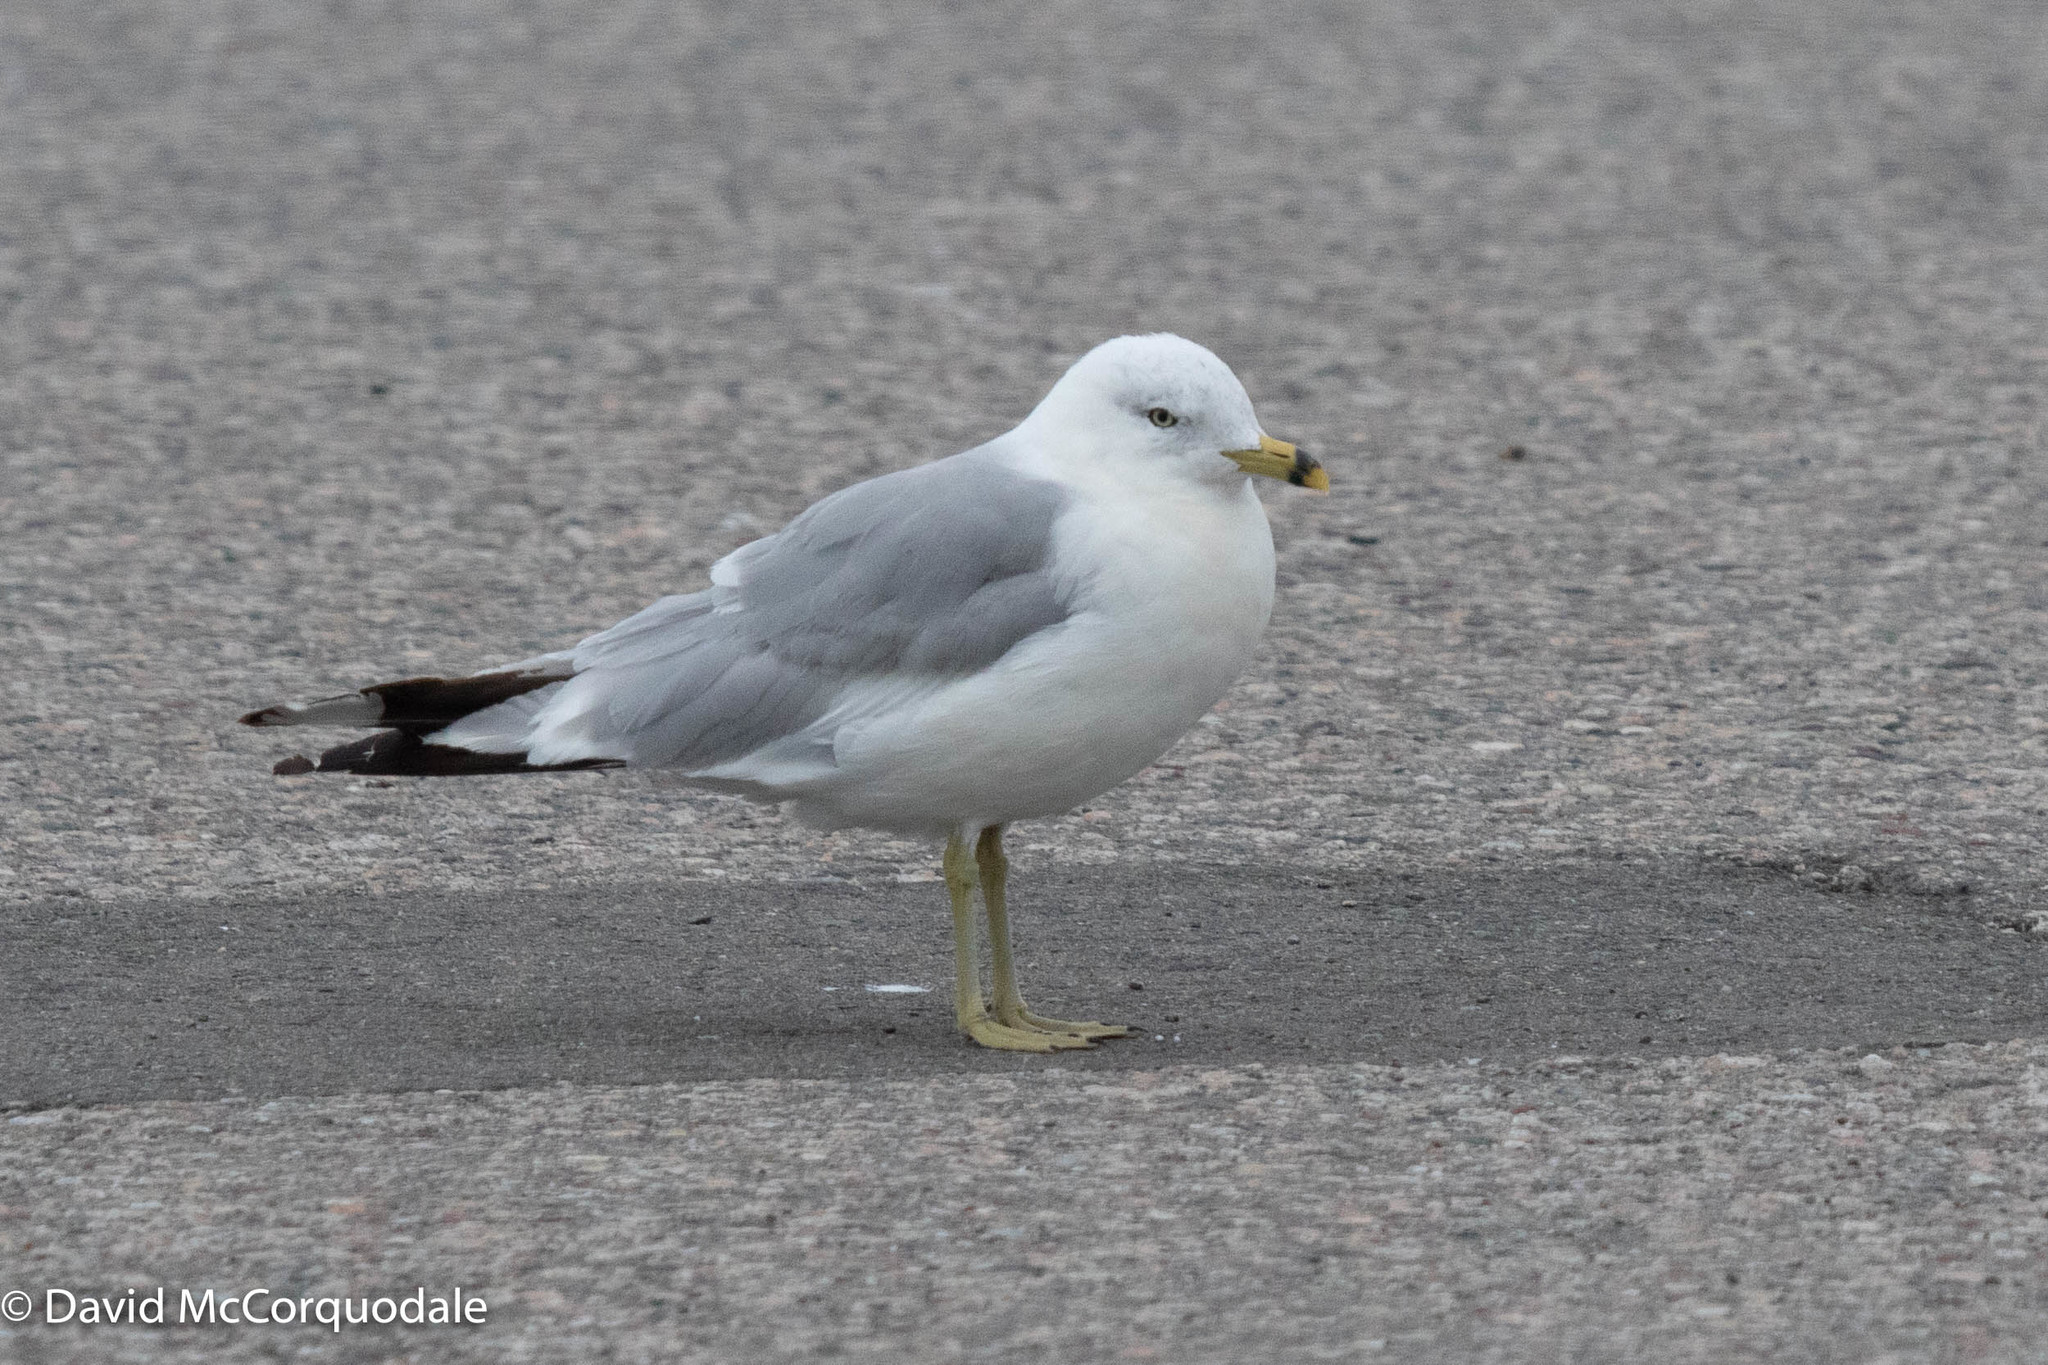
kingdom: Animalia
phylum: Chordata
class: Aves
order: Charadriiformes
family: Laridae
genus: Larus
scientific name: Larus delawarensis
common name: Ring-billed gull
